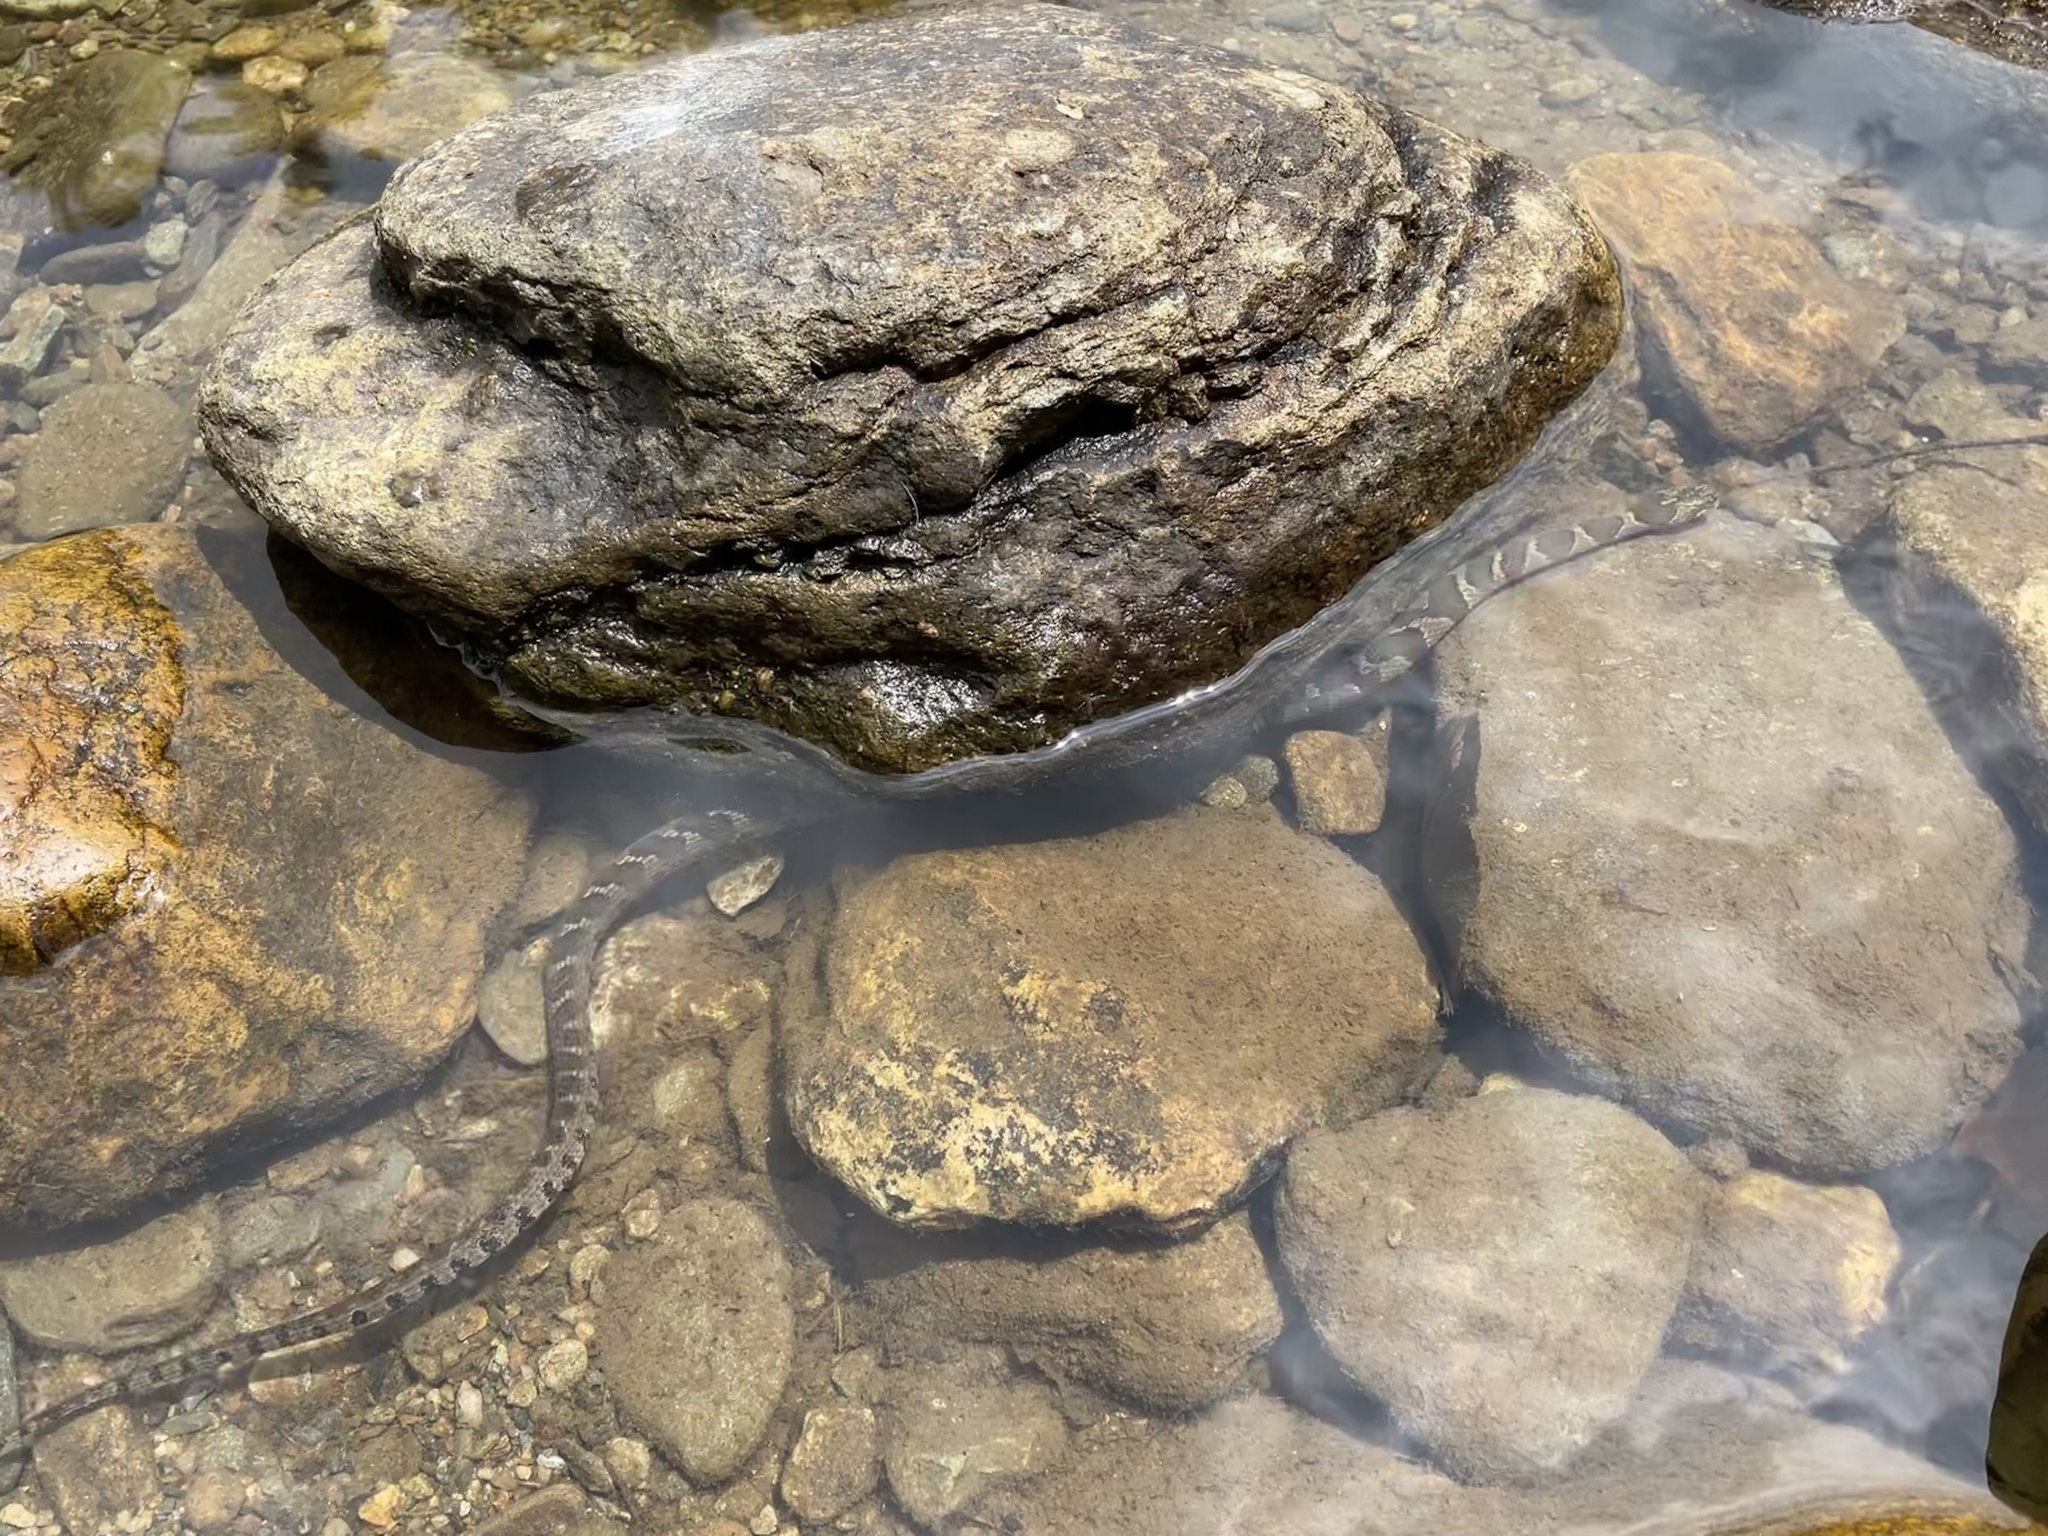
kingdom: Animalia
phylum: Chordata
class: Squamata
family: Colubridae
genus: Nerodia
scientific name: Nerodia sipedon
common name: Northern water snake
